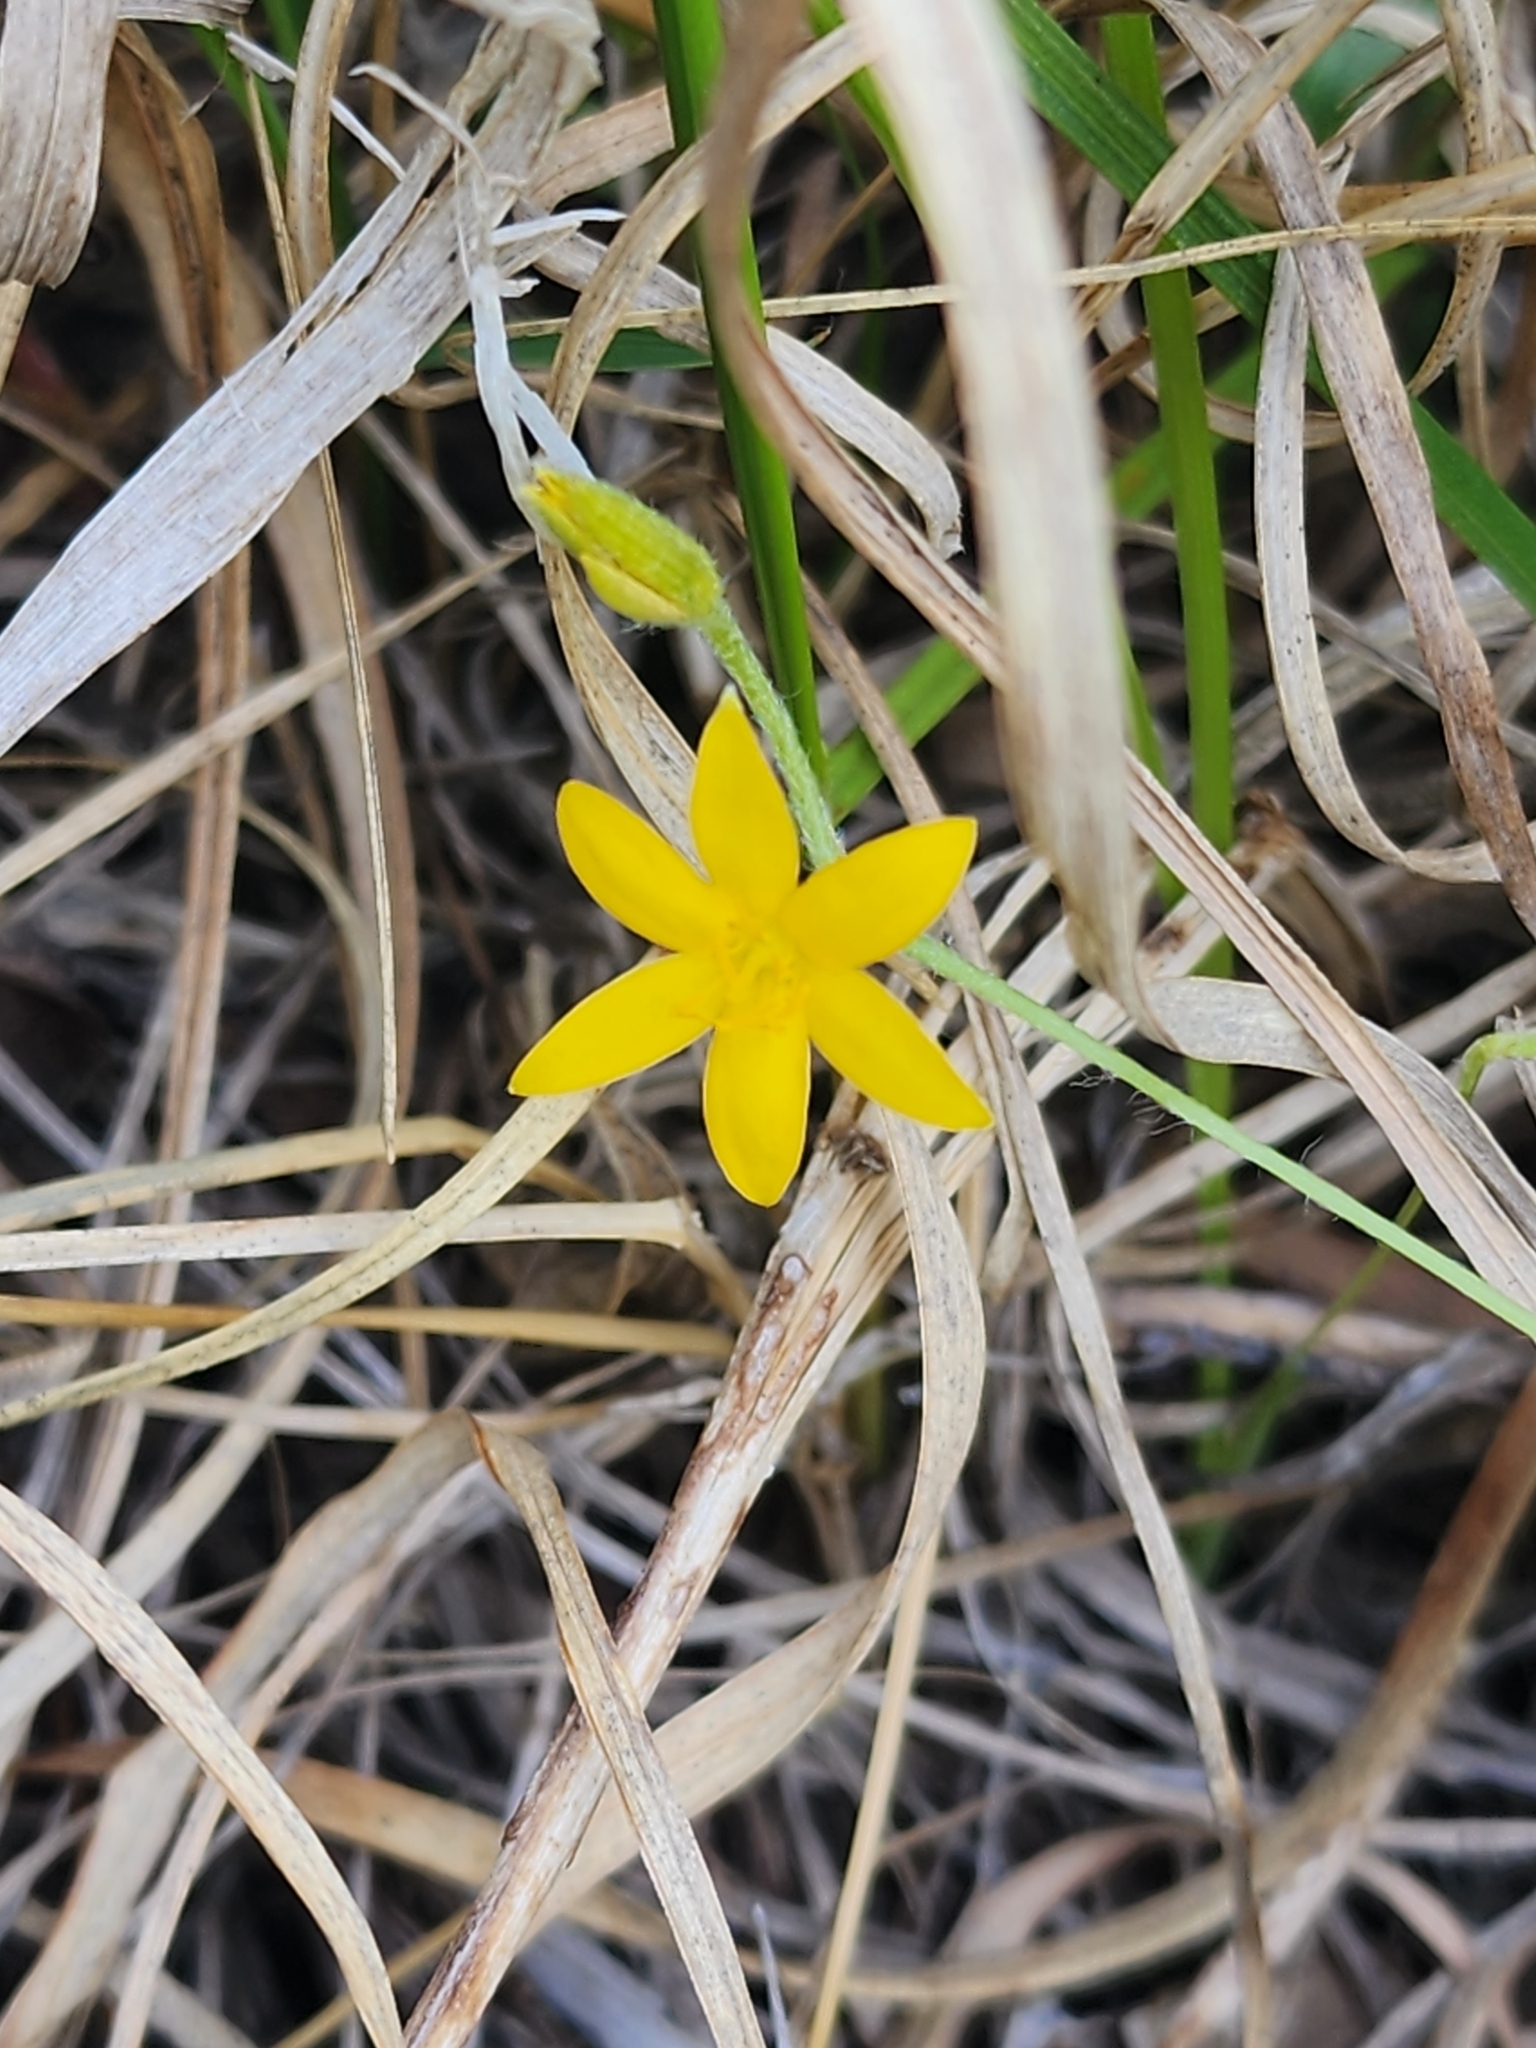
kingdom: Plantae
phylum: Tracheophyta
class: Liliopsida
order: Asparagales
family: Hypoxidaceae
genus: Hypoxis
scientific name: Hypoxis hirsuta
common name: Common goldstar
